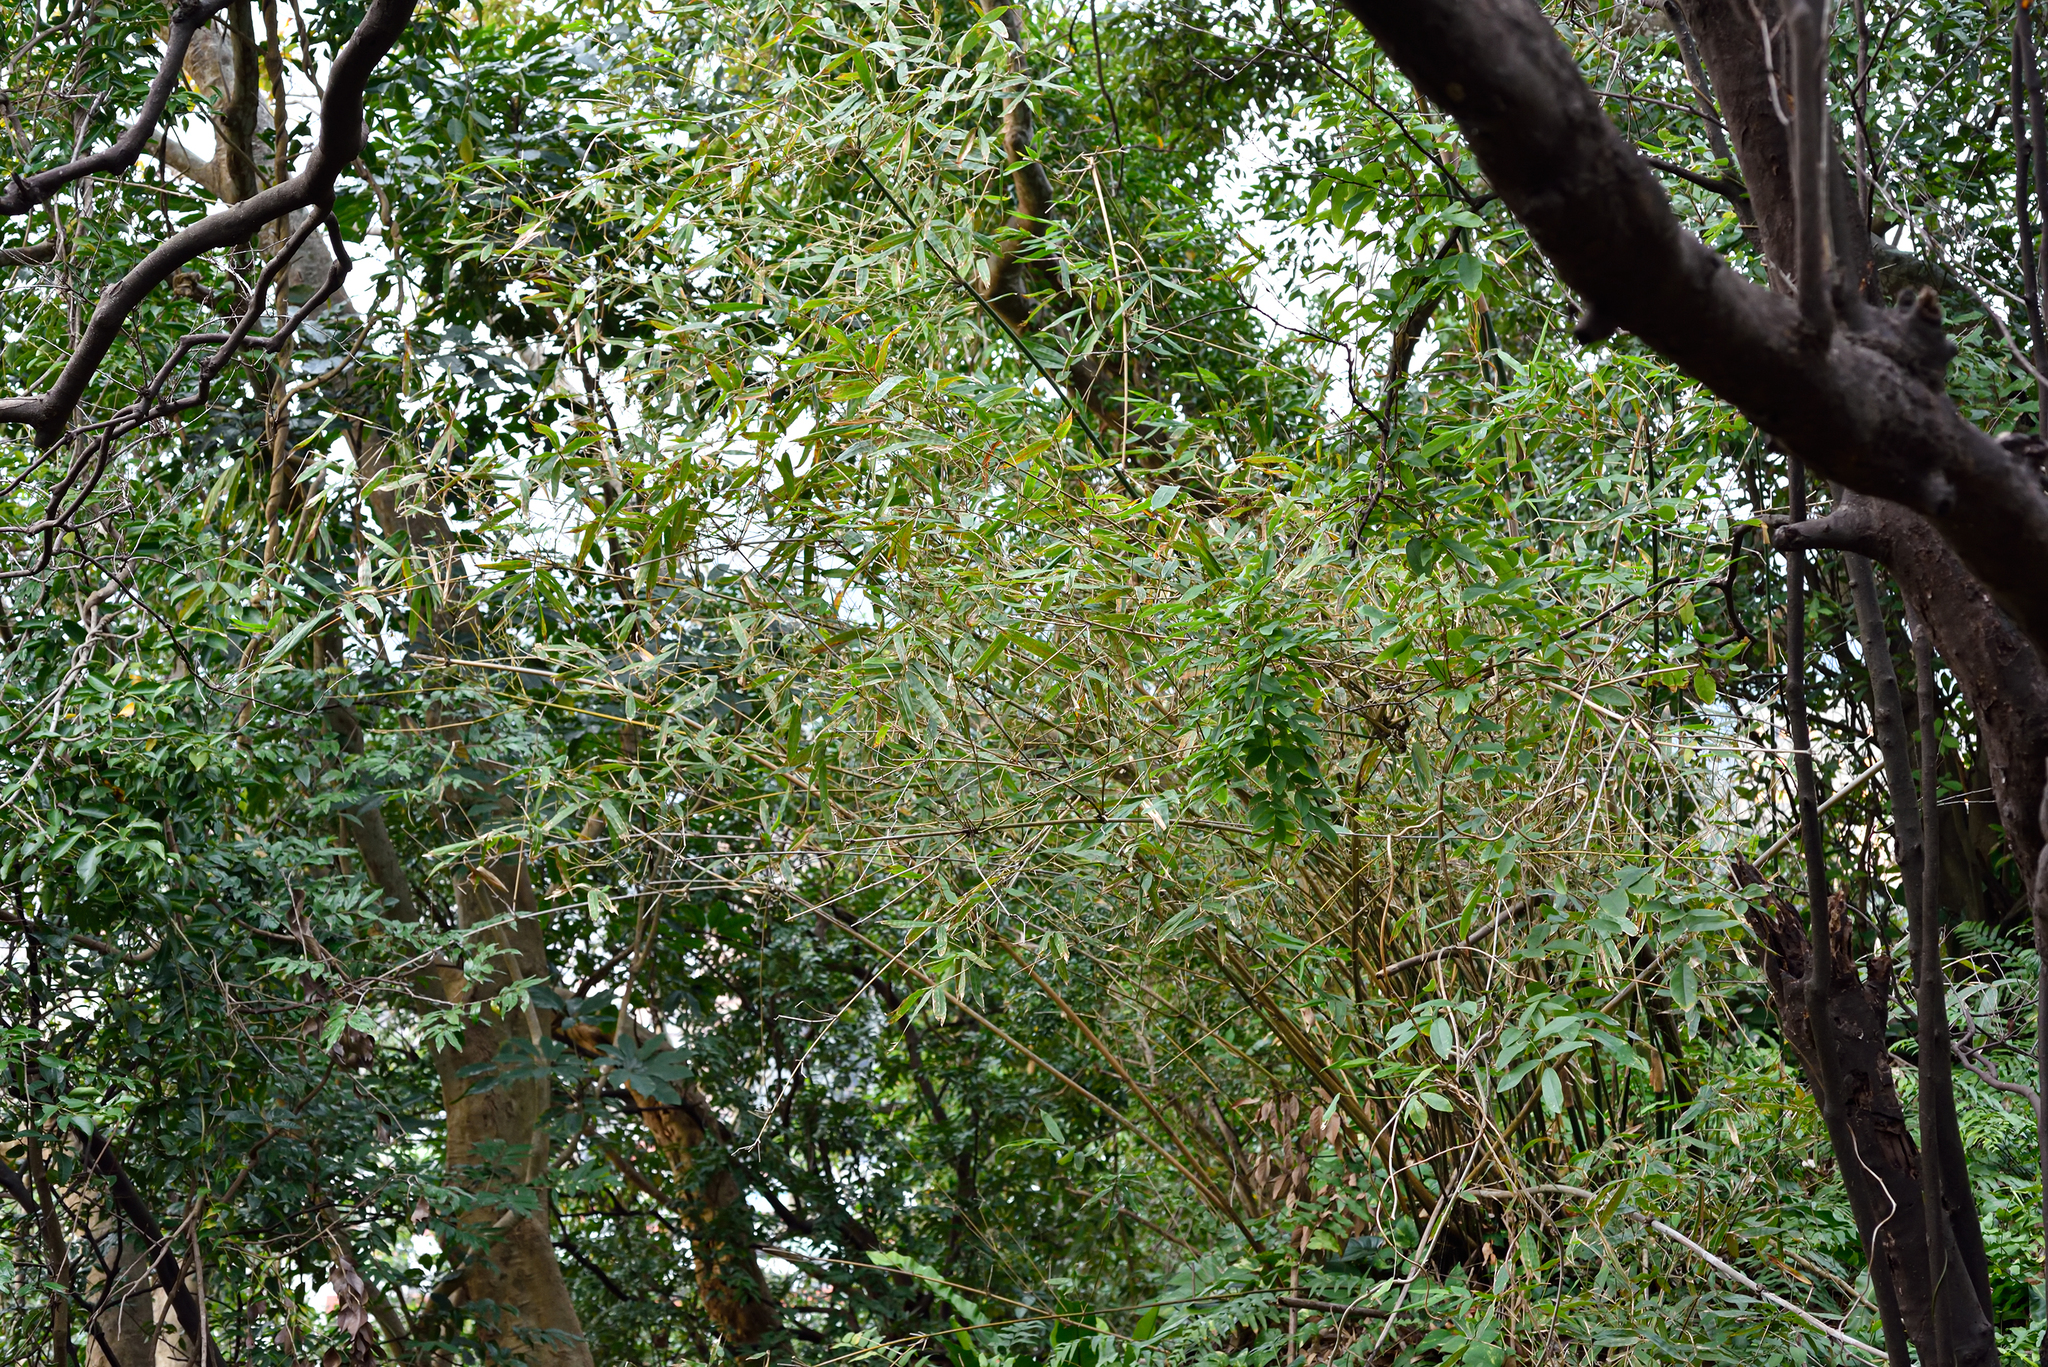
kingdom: Plantae
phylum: Tracheophyta
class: Liliopsida
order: Poales
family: Poaceae
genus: Bambusa
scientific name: Bambusa pachinensis
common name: Pachi bamboo
